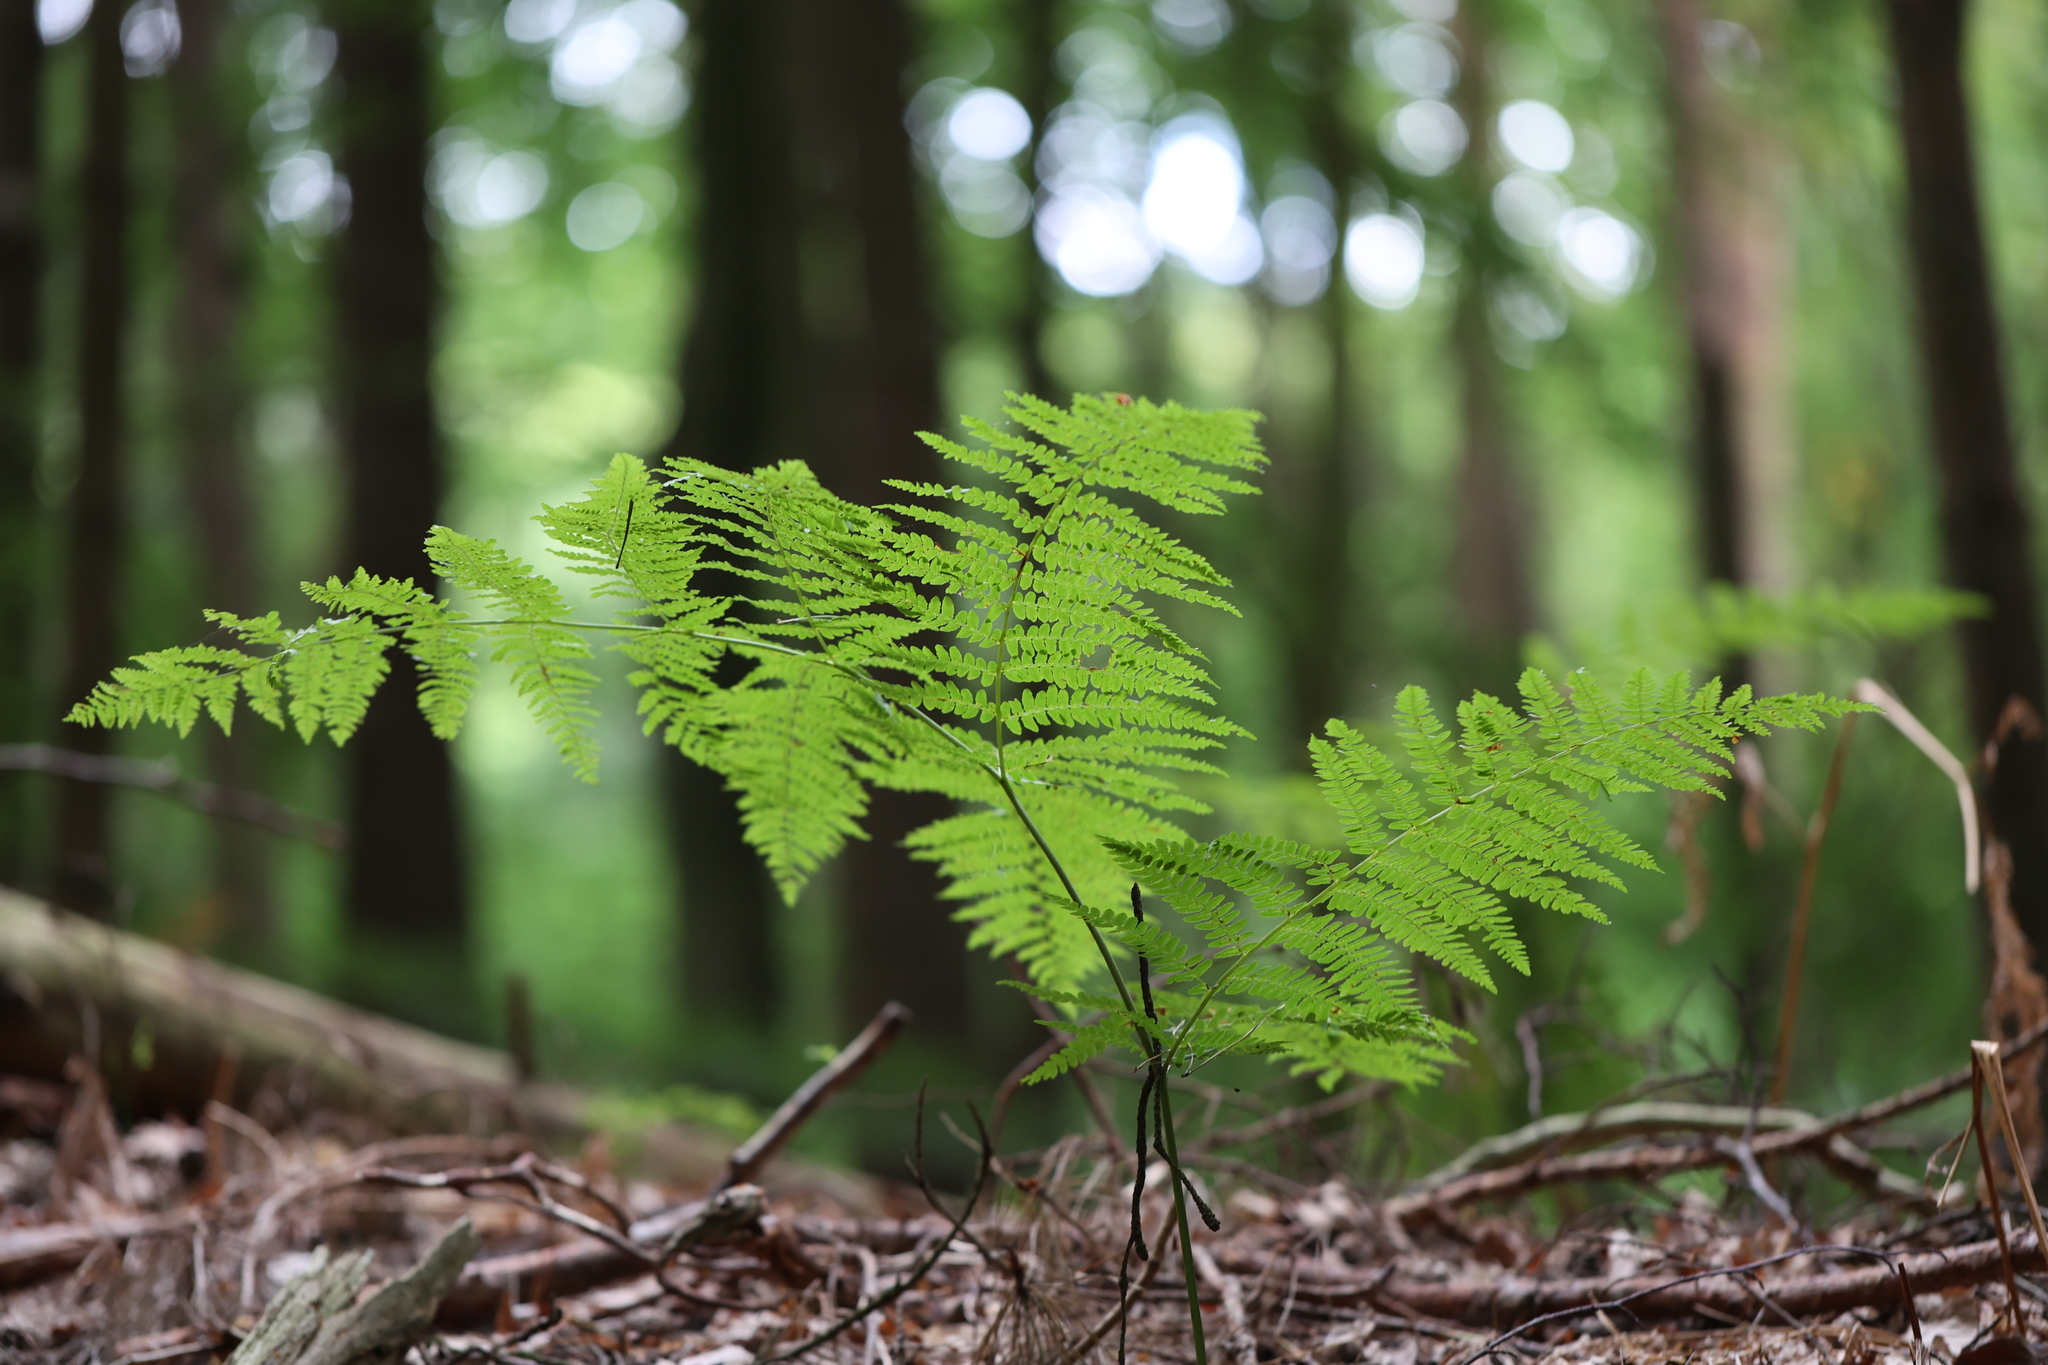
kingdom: Plantae
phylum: Tracheophyta
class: Polypodiopsida
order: Polypodiales
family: Dennstaedtiaceae
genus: Pteridium
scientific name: Pteridium aquilinum
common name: Bracken
